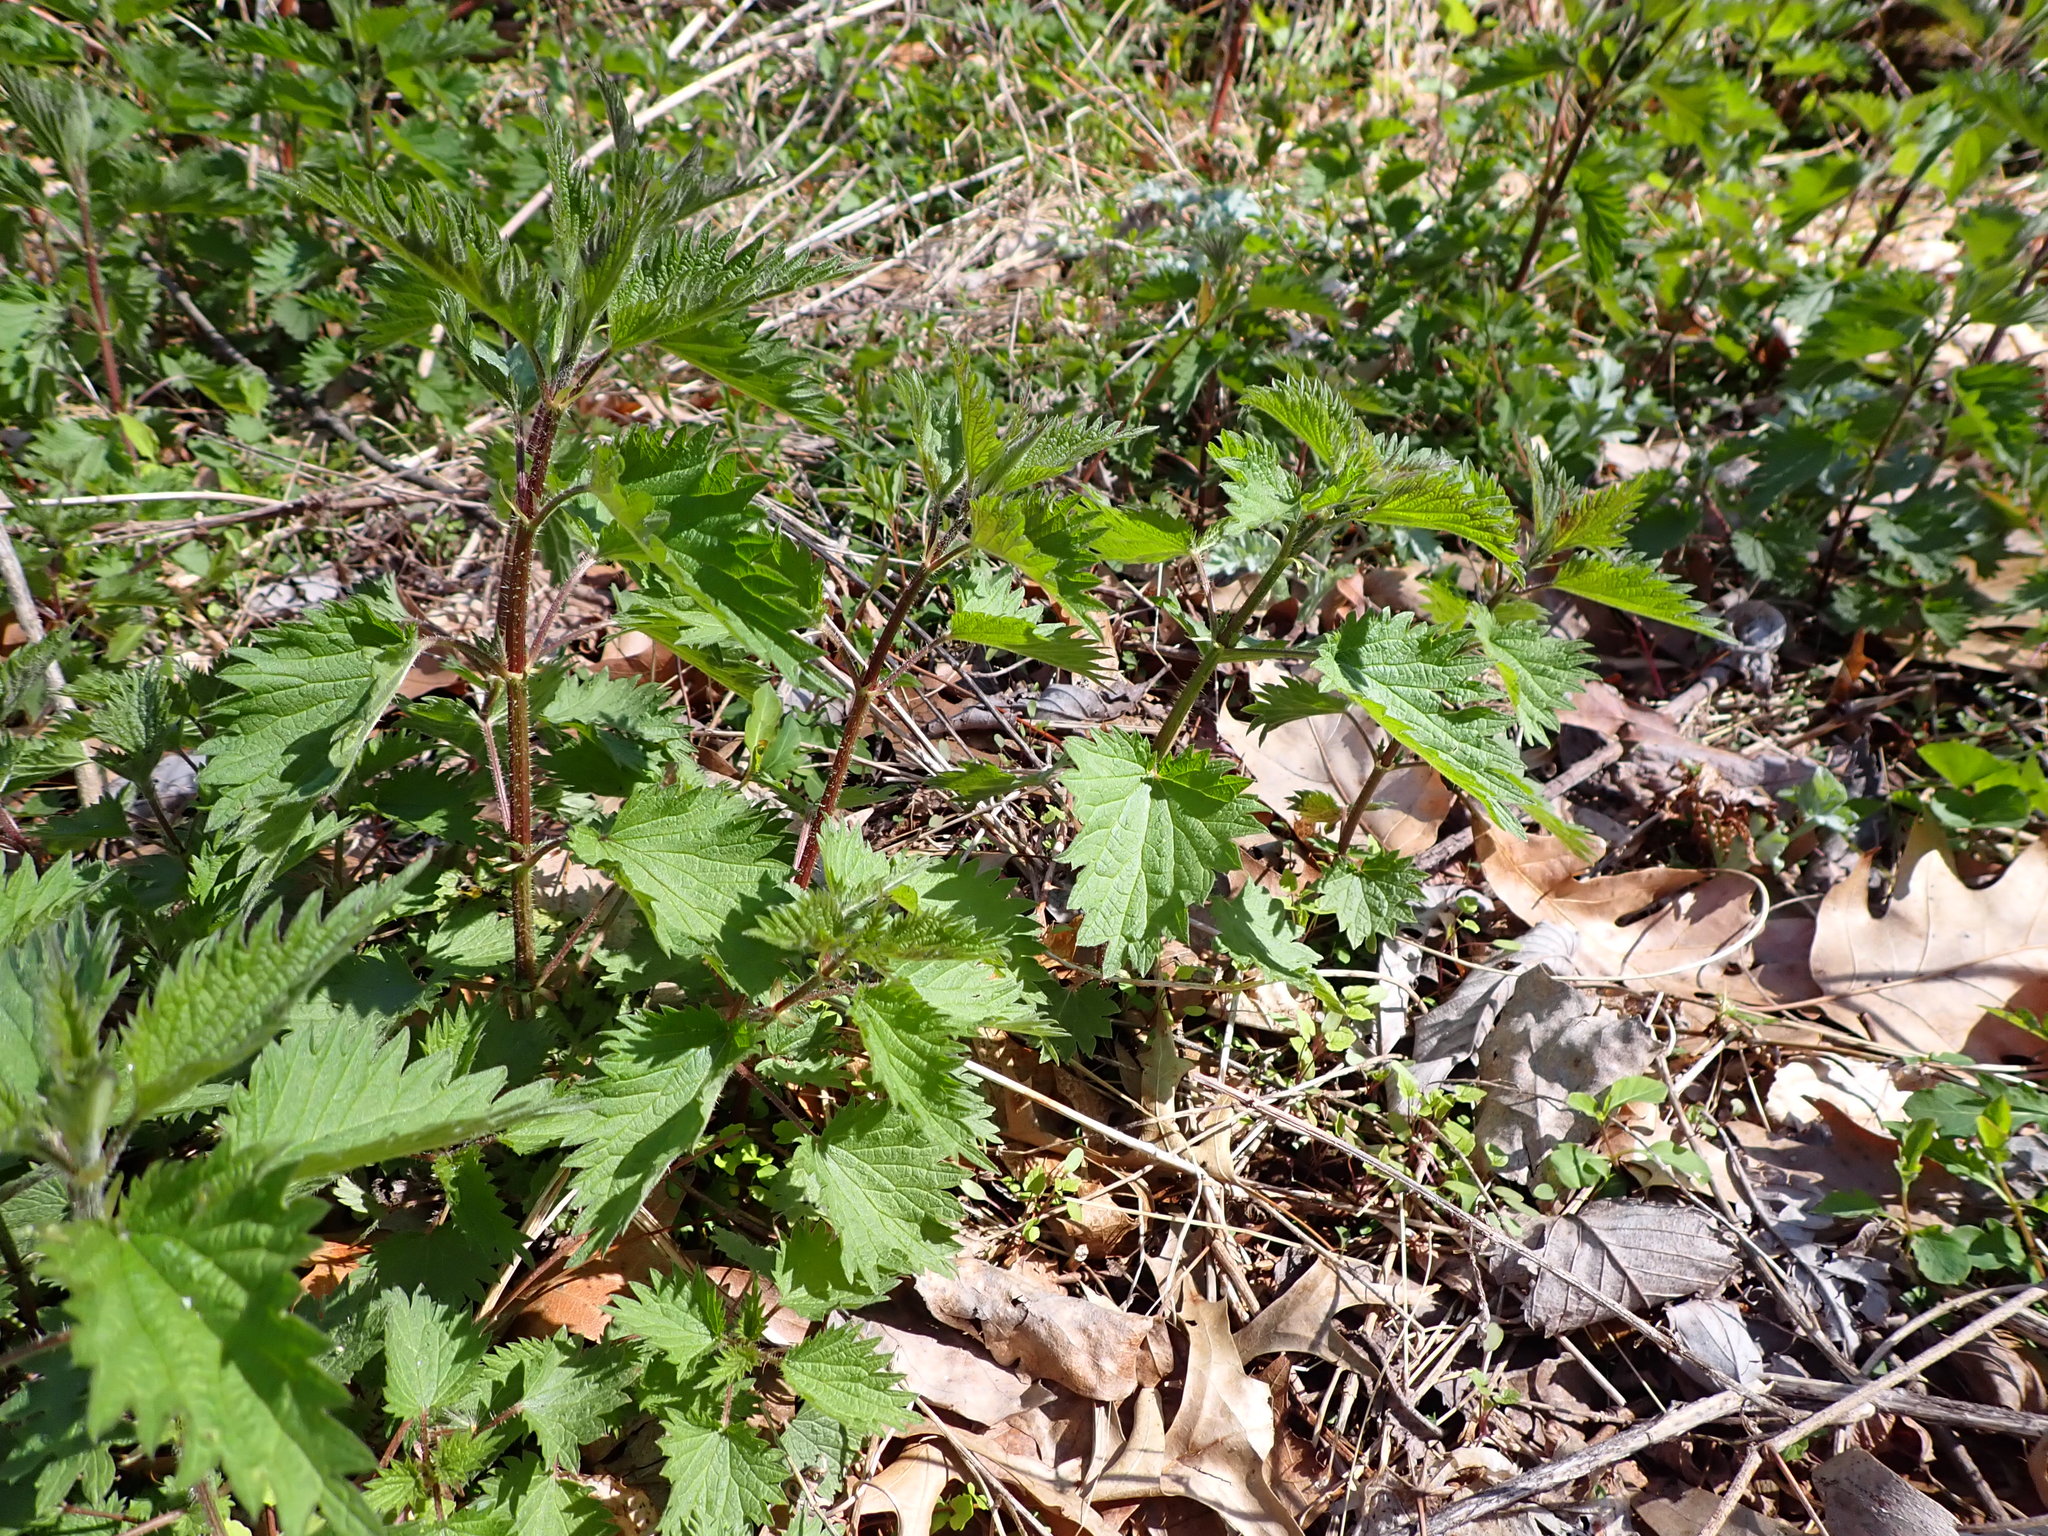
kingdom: Plantae
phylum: Tracheophyta
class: Magnoliopsida
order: Rosales
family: Urticaceae
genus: Urtica
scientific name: Urtica dioica
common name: Common nettle
